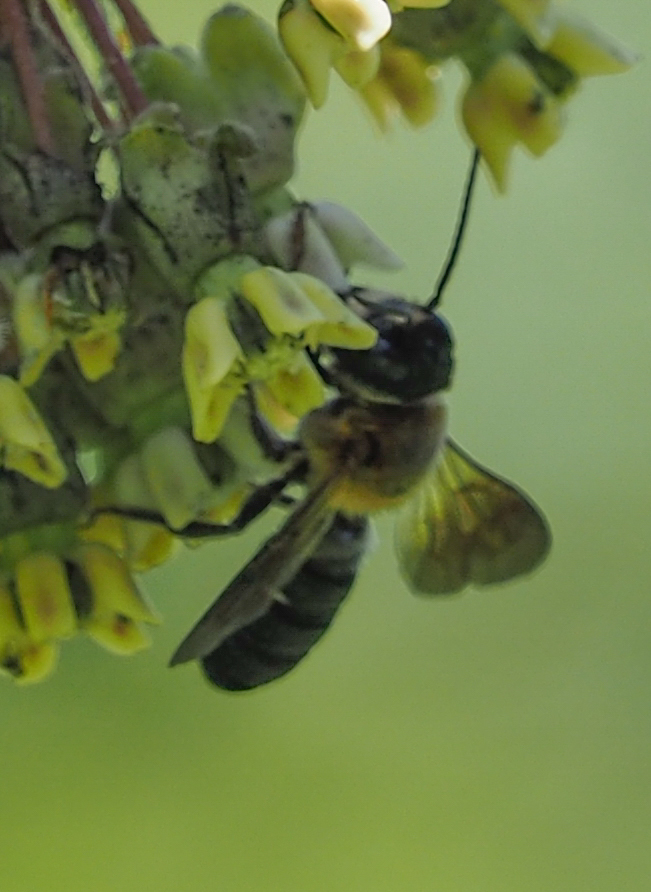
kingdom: Animalia
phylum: Arthropoda
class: Insecta
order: Hymenoptera
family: Megachilidae
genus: Megachile
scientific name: Megachile sculpturalis
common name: Sculptured resin bee
